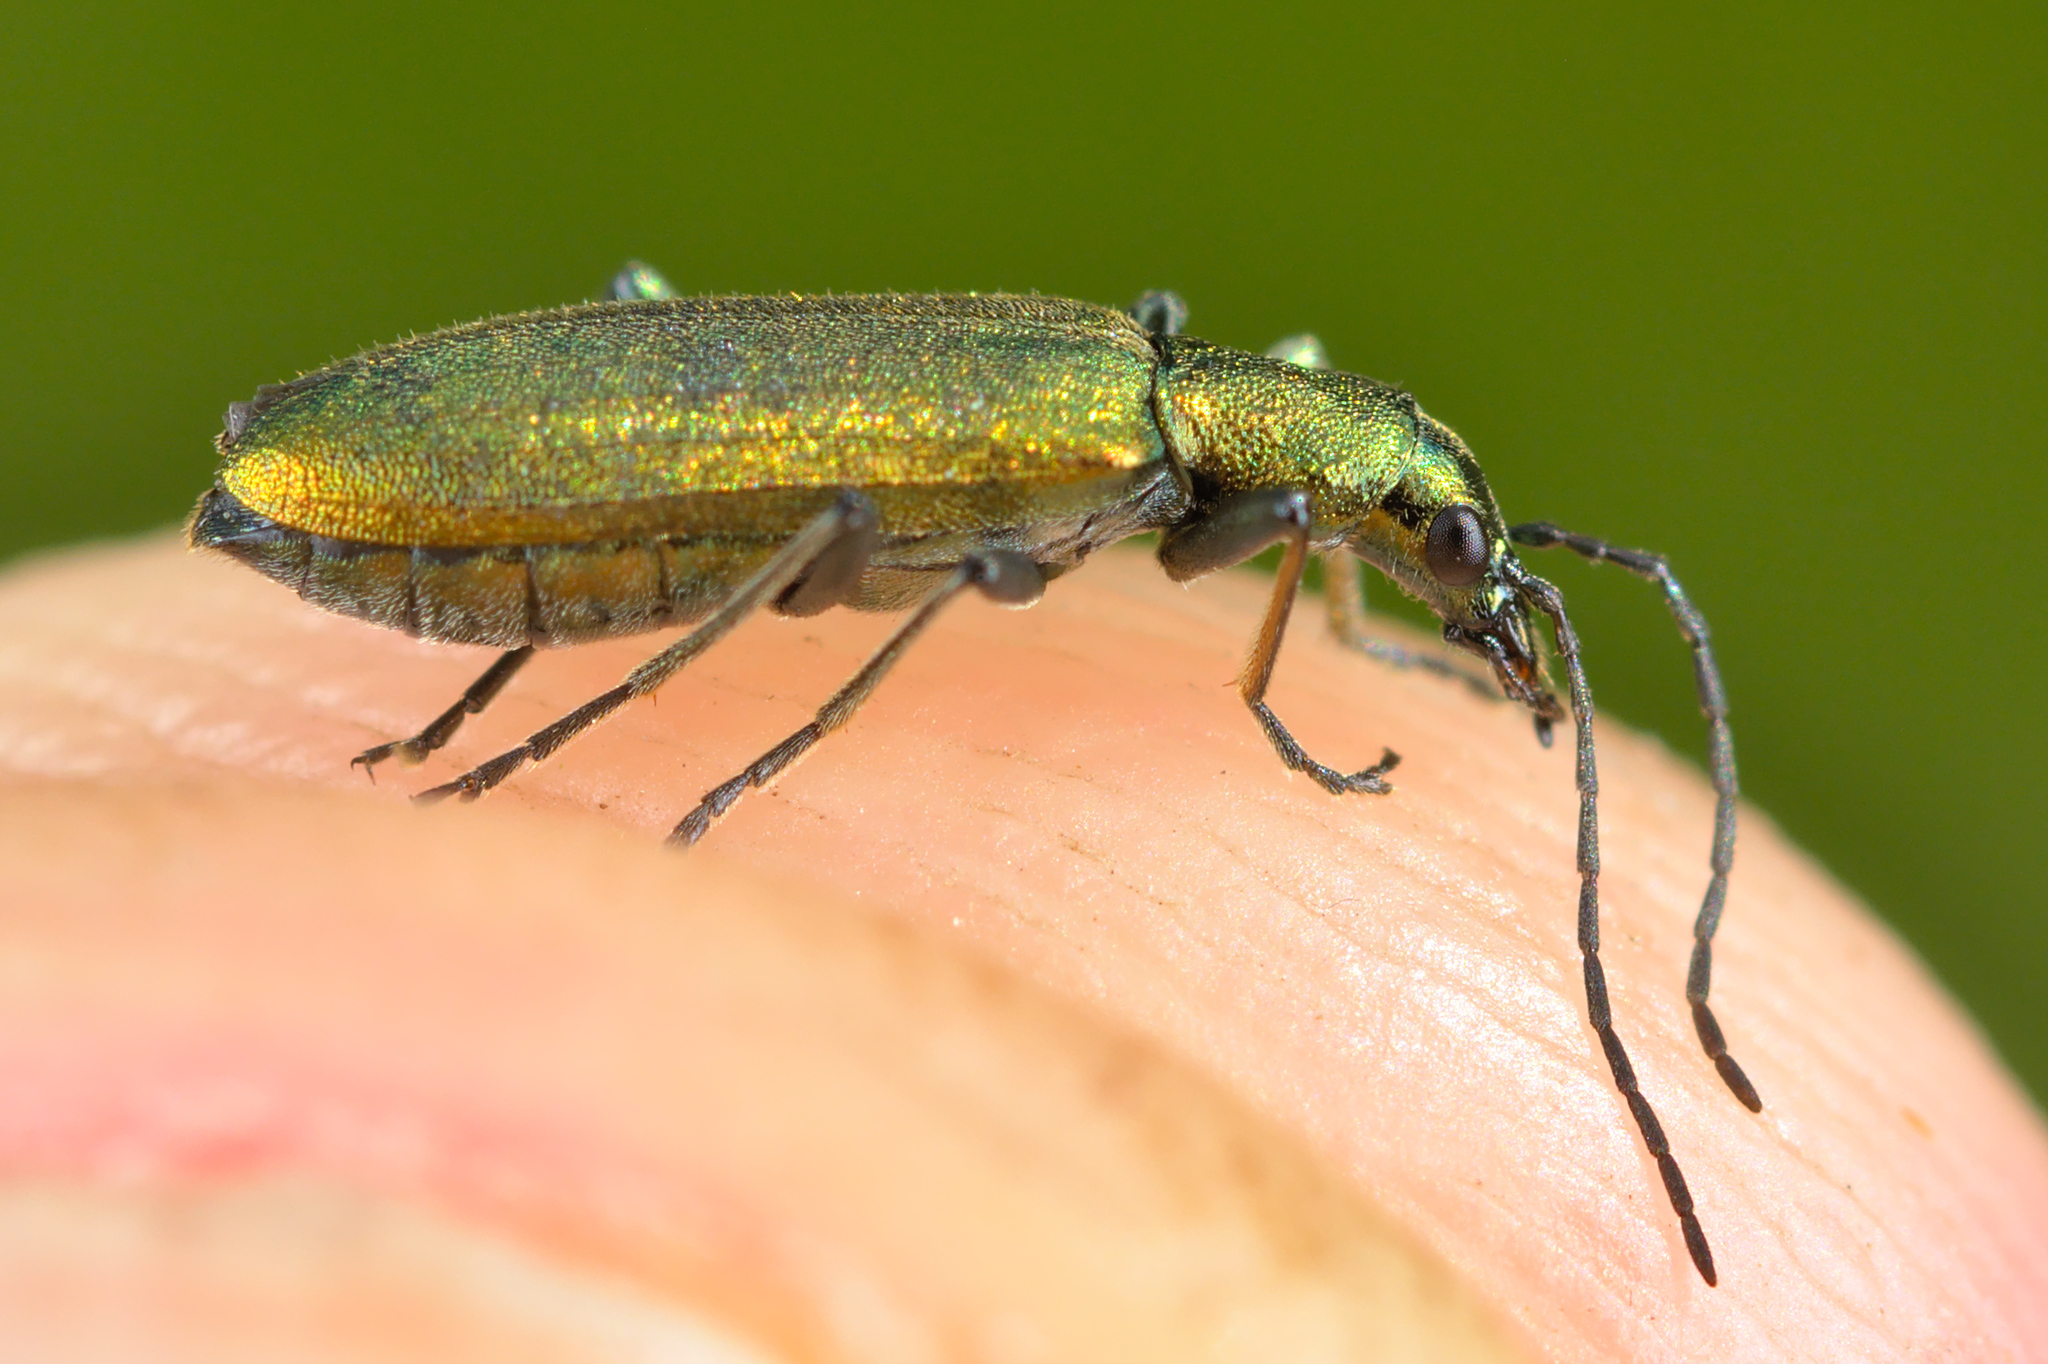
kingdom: Animalia
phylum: Arthropoda
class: Insecta
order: Coleoptera
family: Oedemeridae
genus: Chrysanthia
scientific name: Chrysanthia viridissima
